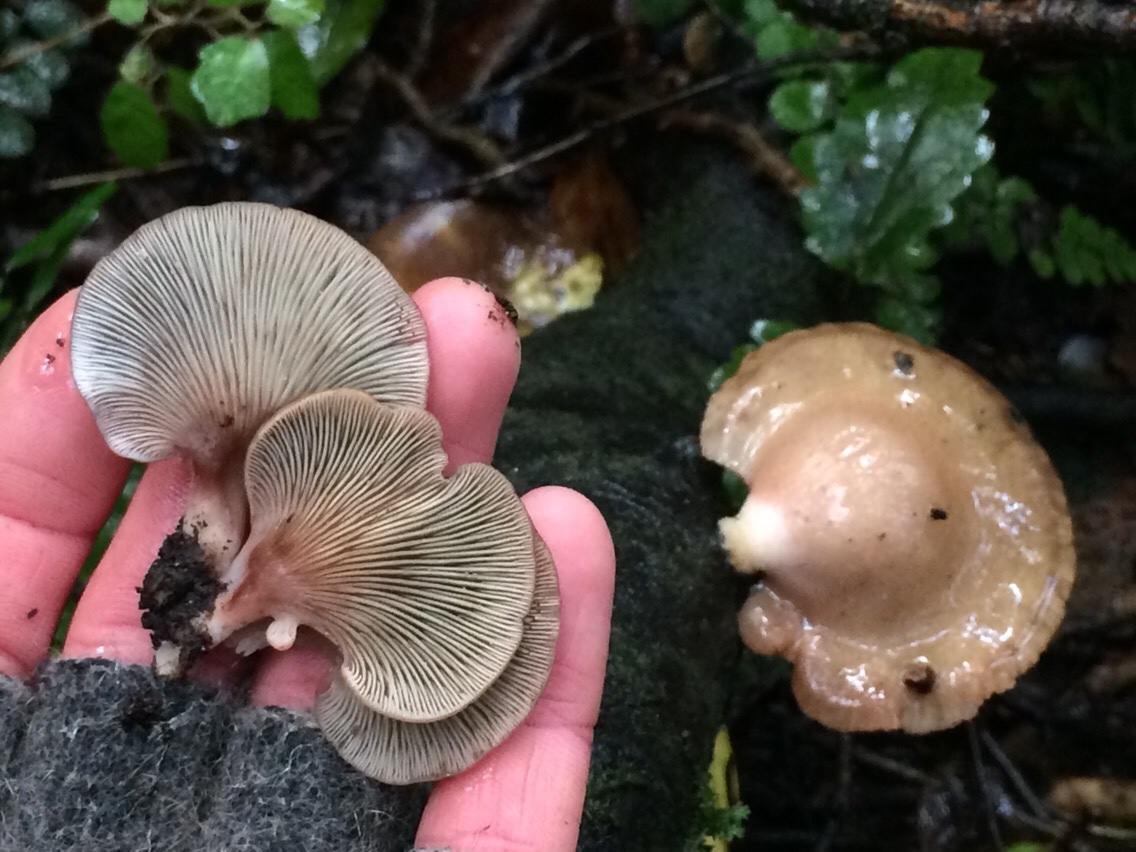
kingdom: Fungi
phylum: Basidiomycota
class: Agaricomycetes
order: Agaricales
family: Mycenaceae
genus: Panellus
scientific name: Panellus longinquus
